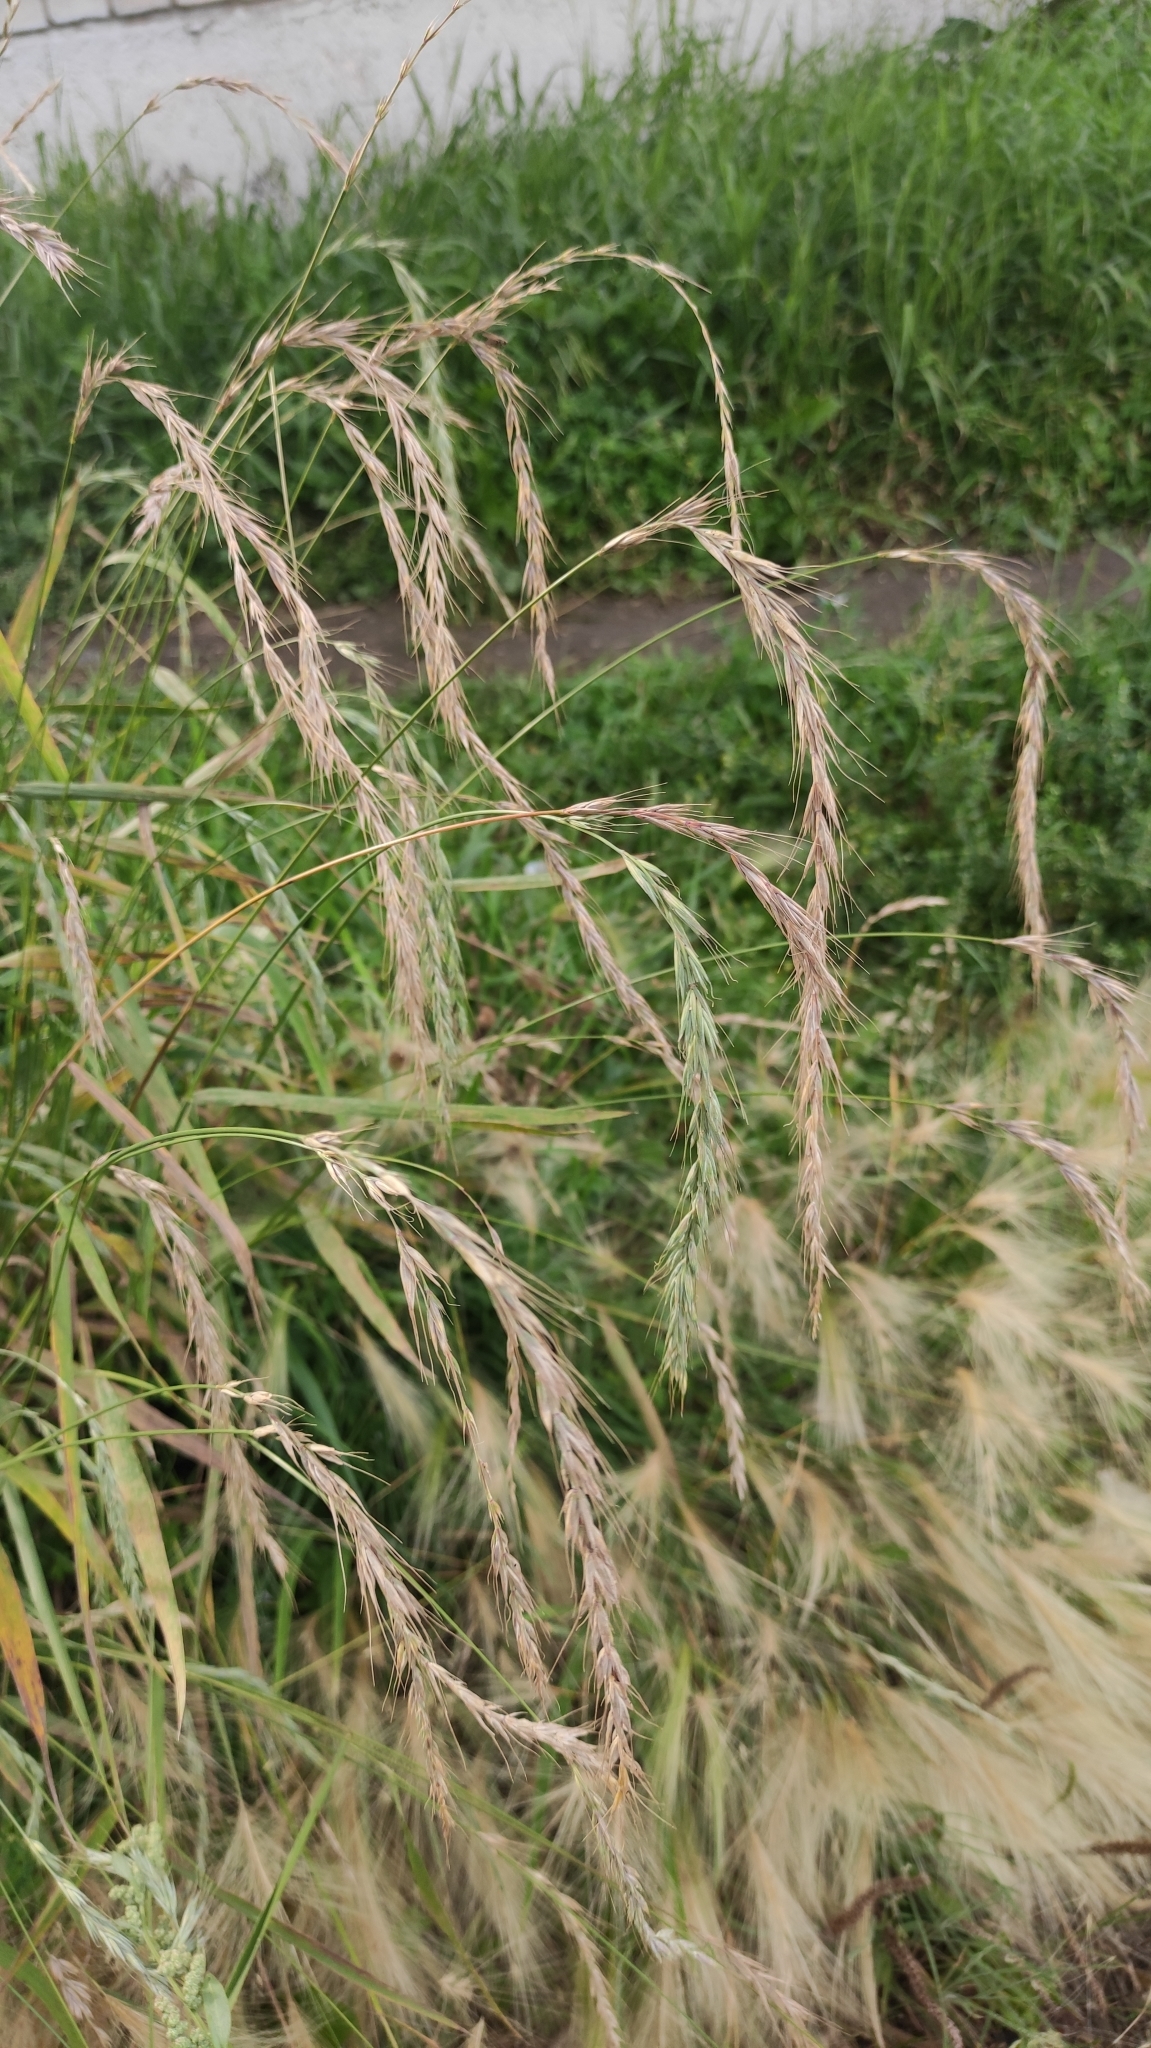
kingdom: Plantae
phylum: Tracheophyta
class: Liliopsida
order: Poales
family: Poaceae
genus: Elymus
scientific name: Elymus sibiricus
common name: Siberian wildrye
